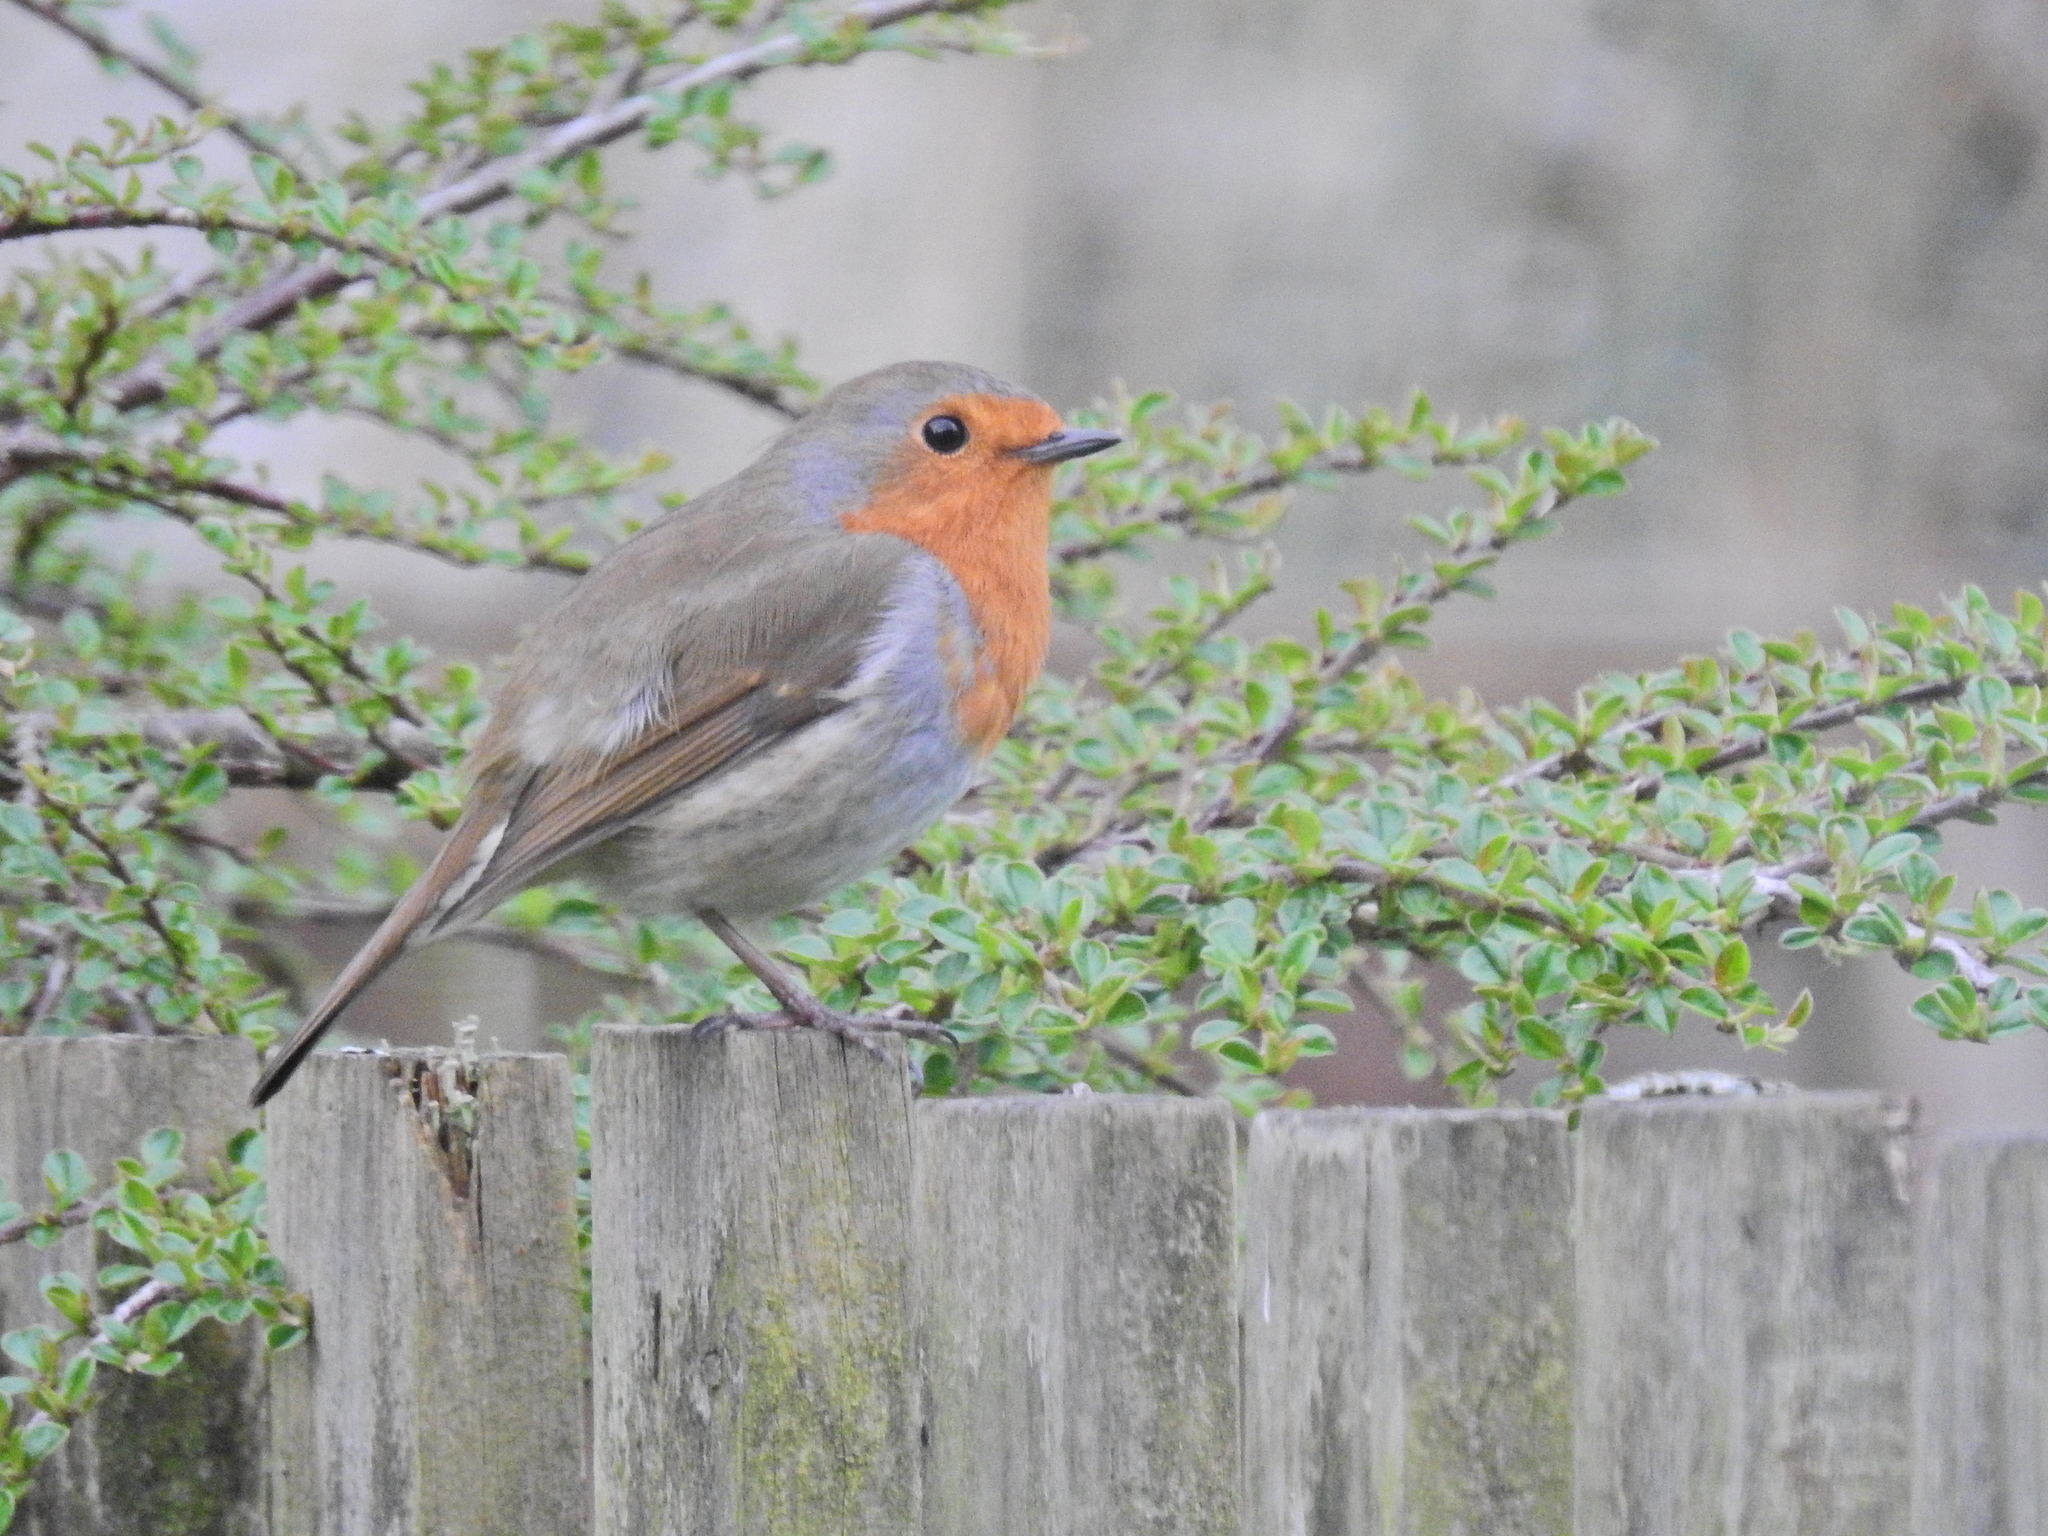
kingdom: Animalia
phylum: Chordata
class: Aves
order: Passeriformes
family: Muscicapidae
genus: Erithacus
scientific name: Erithacus rubecula
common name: European robin
